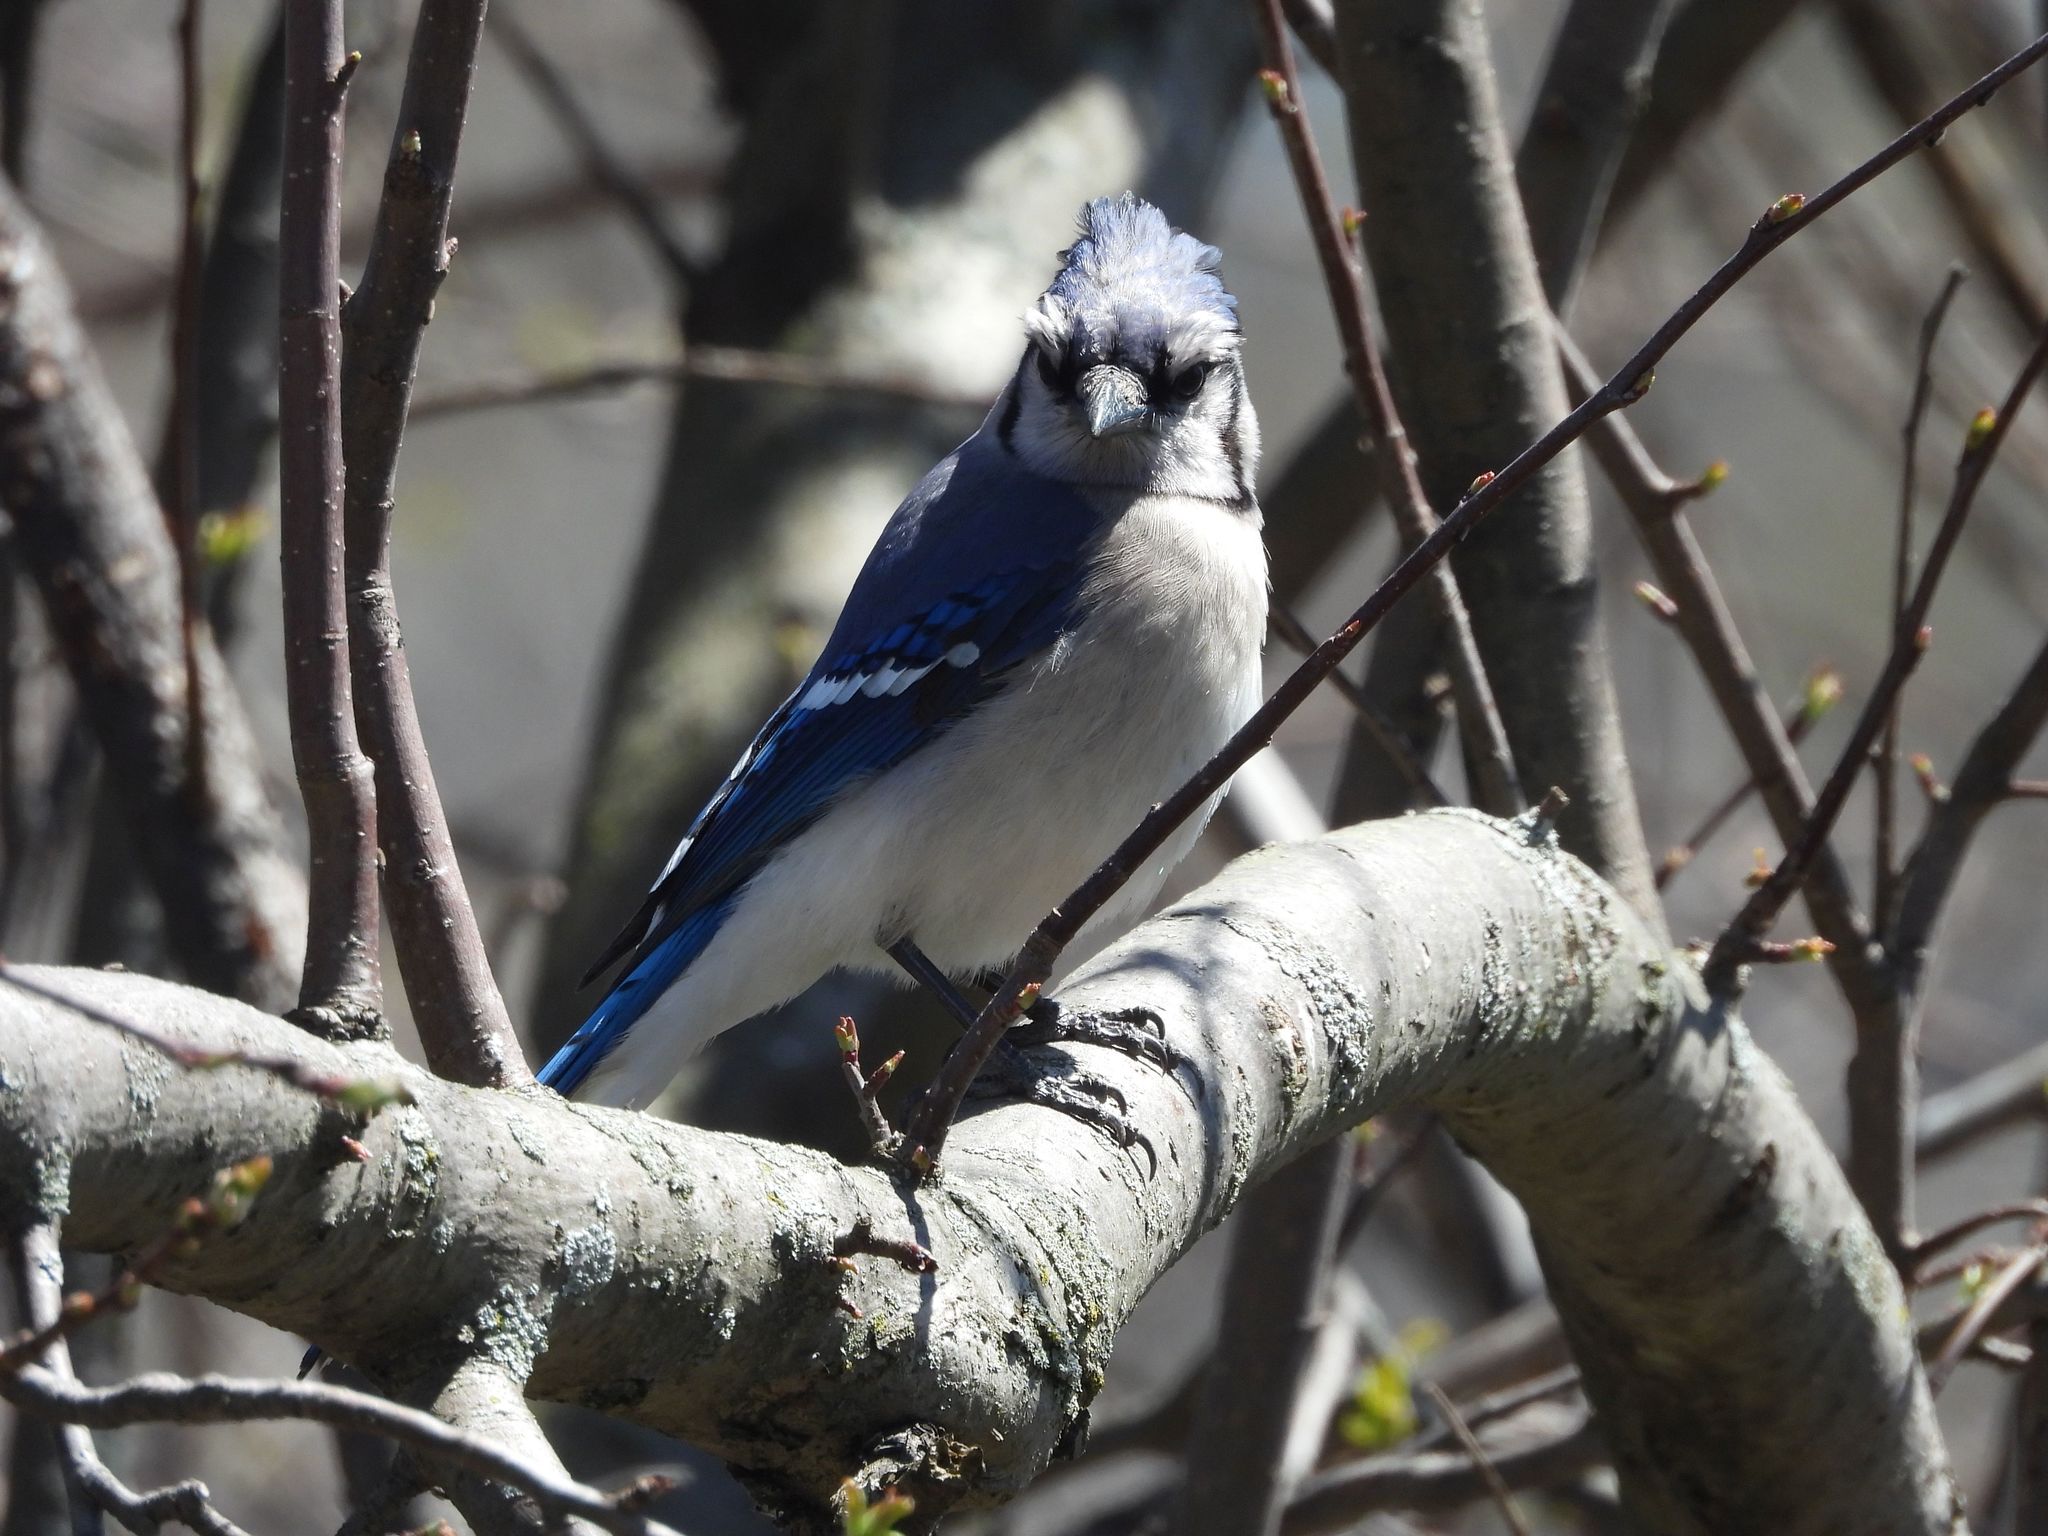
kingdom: Animalia
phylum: Chordata
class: Aves
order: Passeriformes
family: Corvidae
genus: Cyanocitta
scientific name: Cyanocitta cristata
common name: Blue jay
